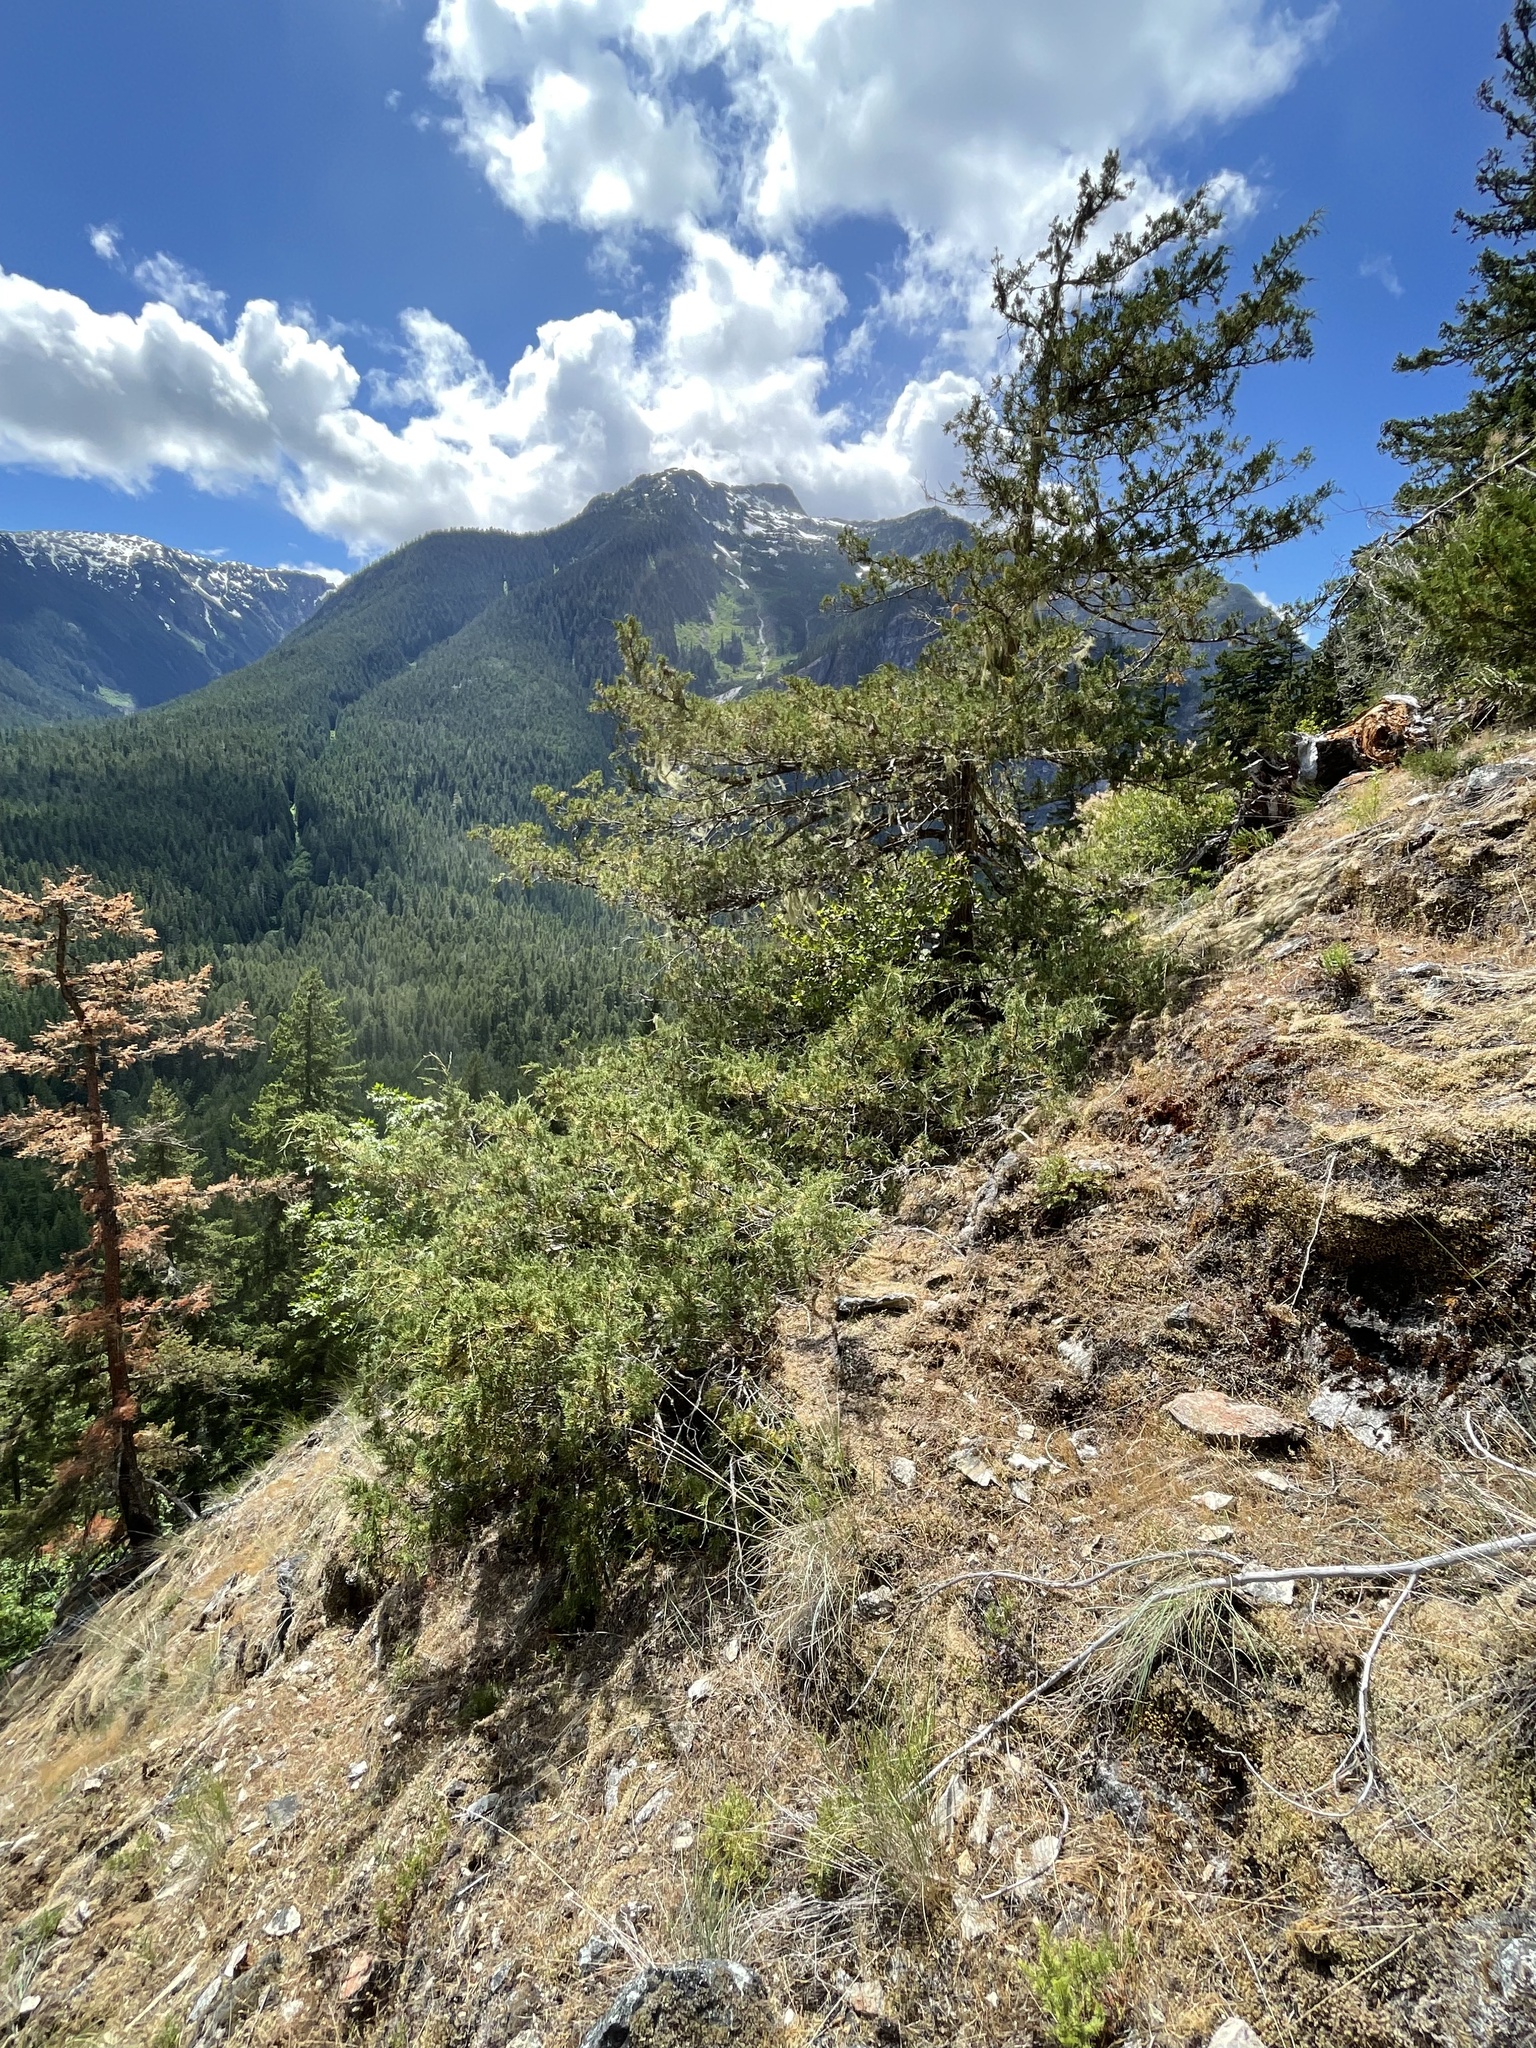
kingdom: Plantae
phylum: Tracheophyta
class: Pinopsida
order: Pinales
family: Cupressaceae
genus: Juniperus
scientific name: Juniperus scopulorum
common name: Rocky mountain juniper
